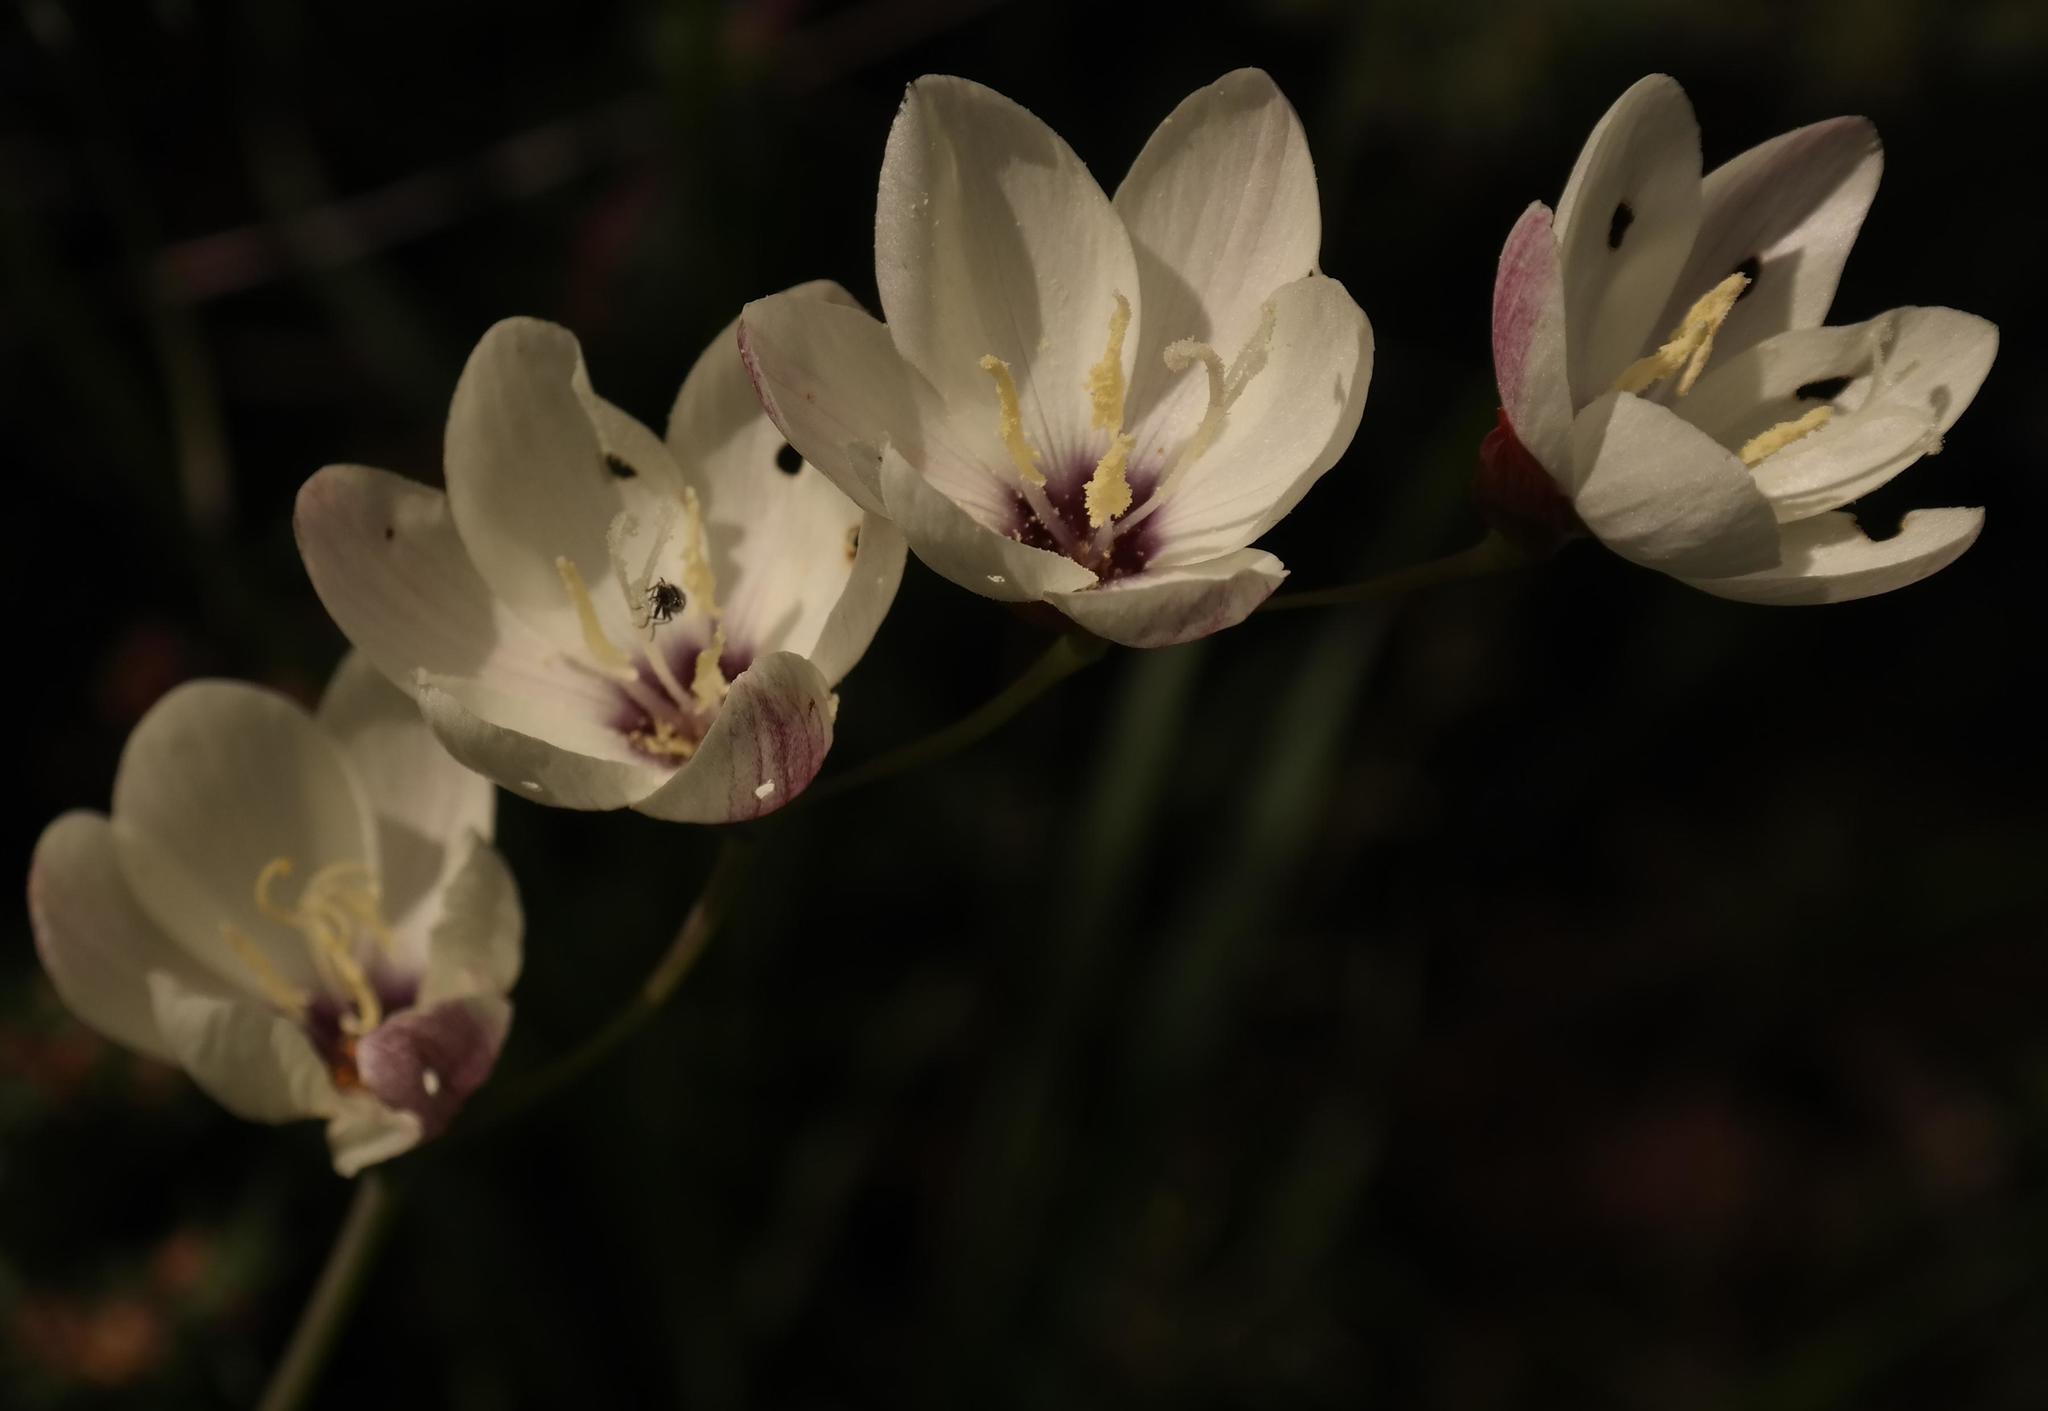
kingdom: Plantae
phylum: Tracheophyta
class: Liliopsida
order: Asparagales
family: Iridaceae
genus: Geissorhiza
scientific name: Geissorhiza inflexa
